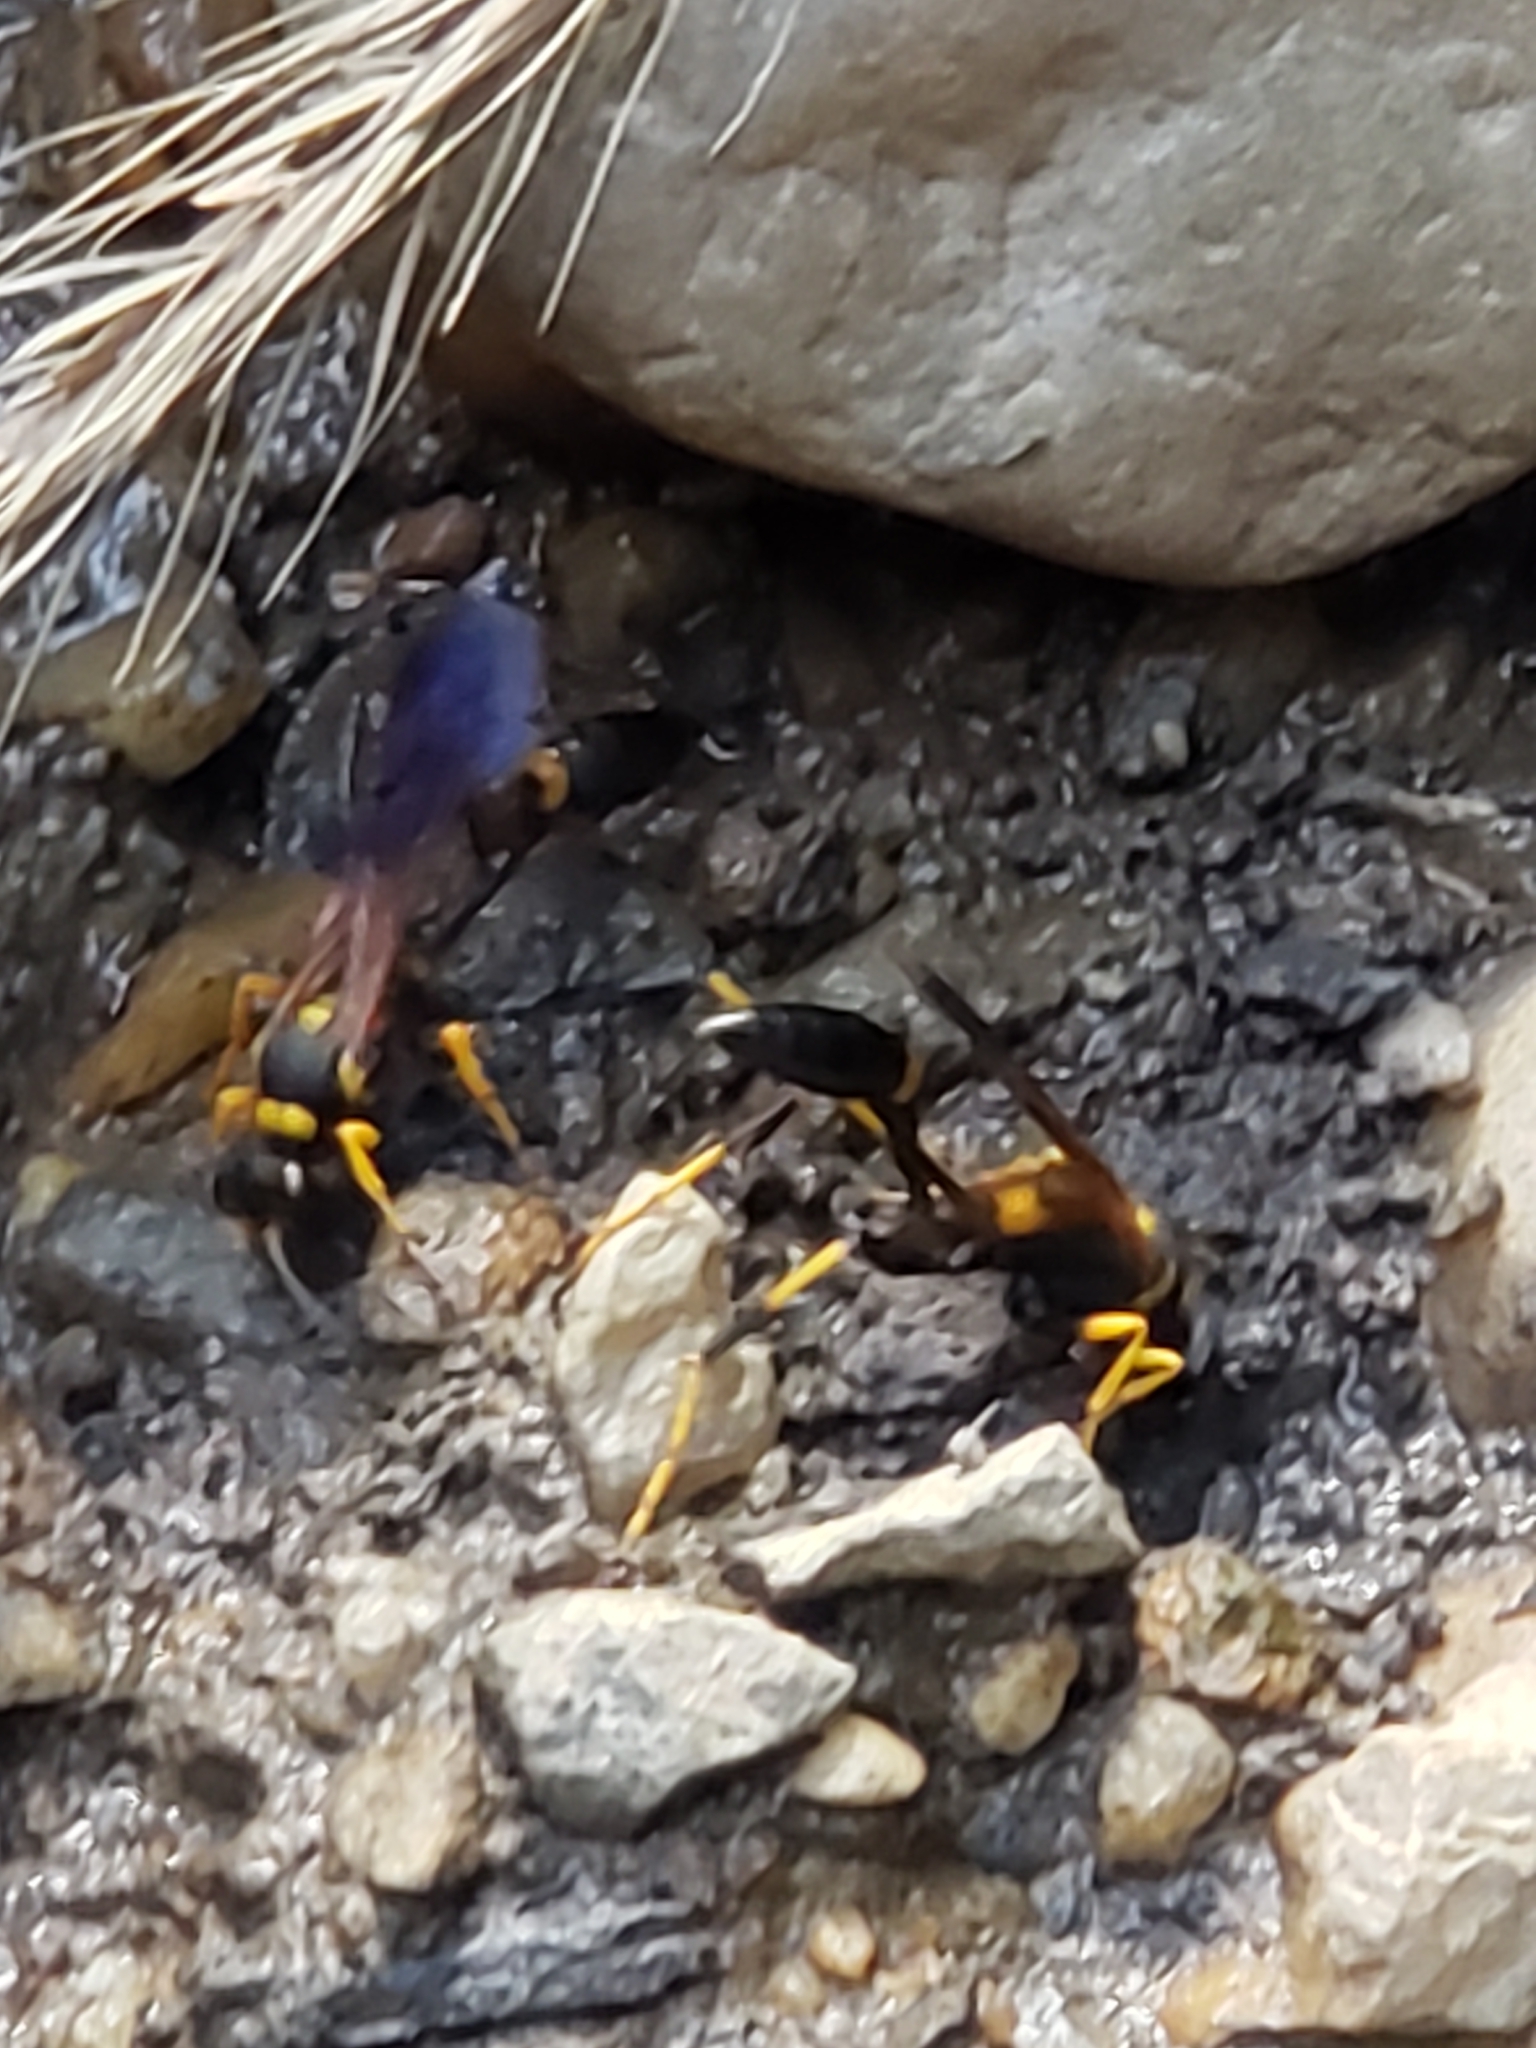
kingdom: Animalia
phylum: Arthropoda
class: Insecta
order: Hymenoptera
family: Sphecidae
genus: Sceliphron
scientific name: Sceliphron caementarium
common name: Mud dauber
